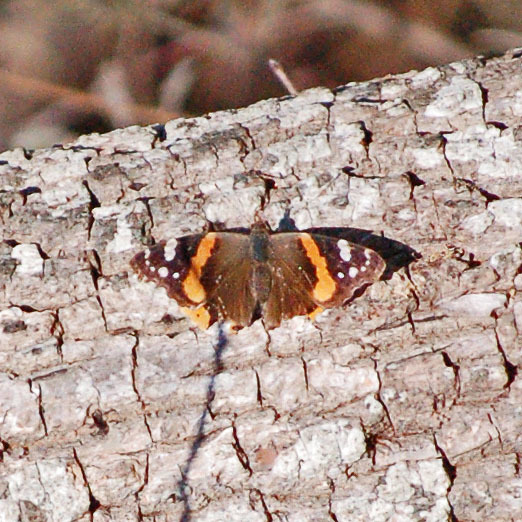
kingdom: Animalia
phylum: Arthropoda
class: Insecta
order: Lepidoptera
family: Nymphalidae
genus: Vanessa
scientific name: Vanessa atalanta
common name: Red admiral
